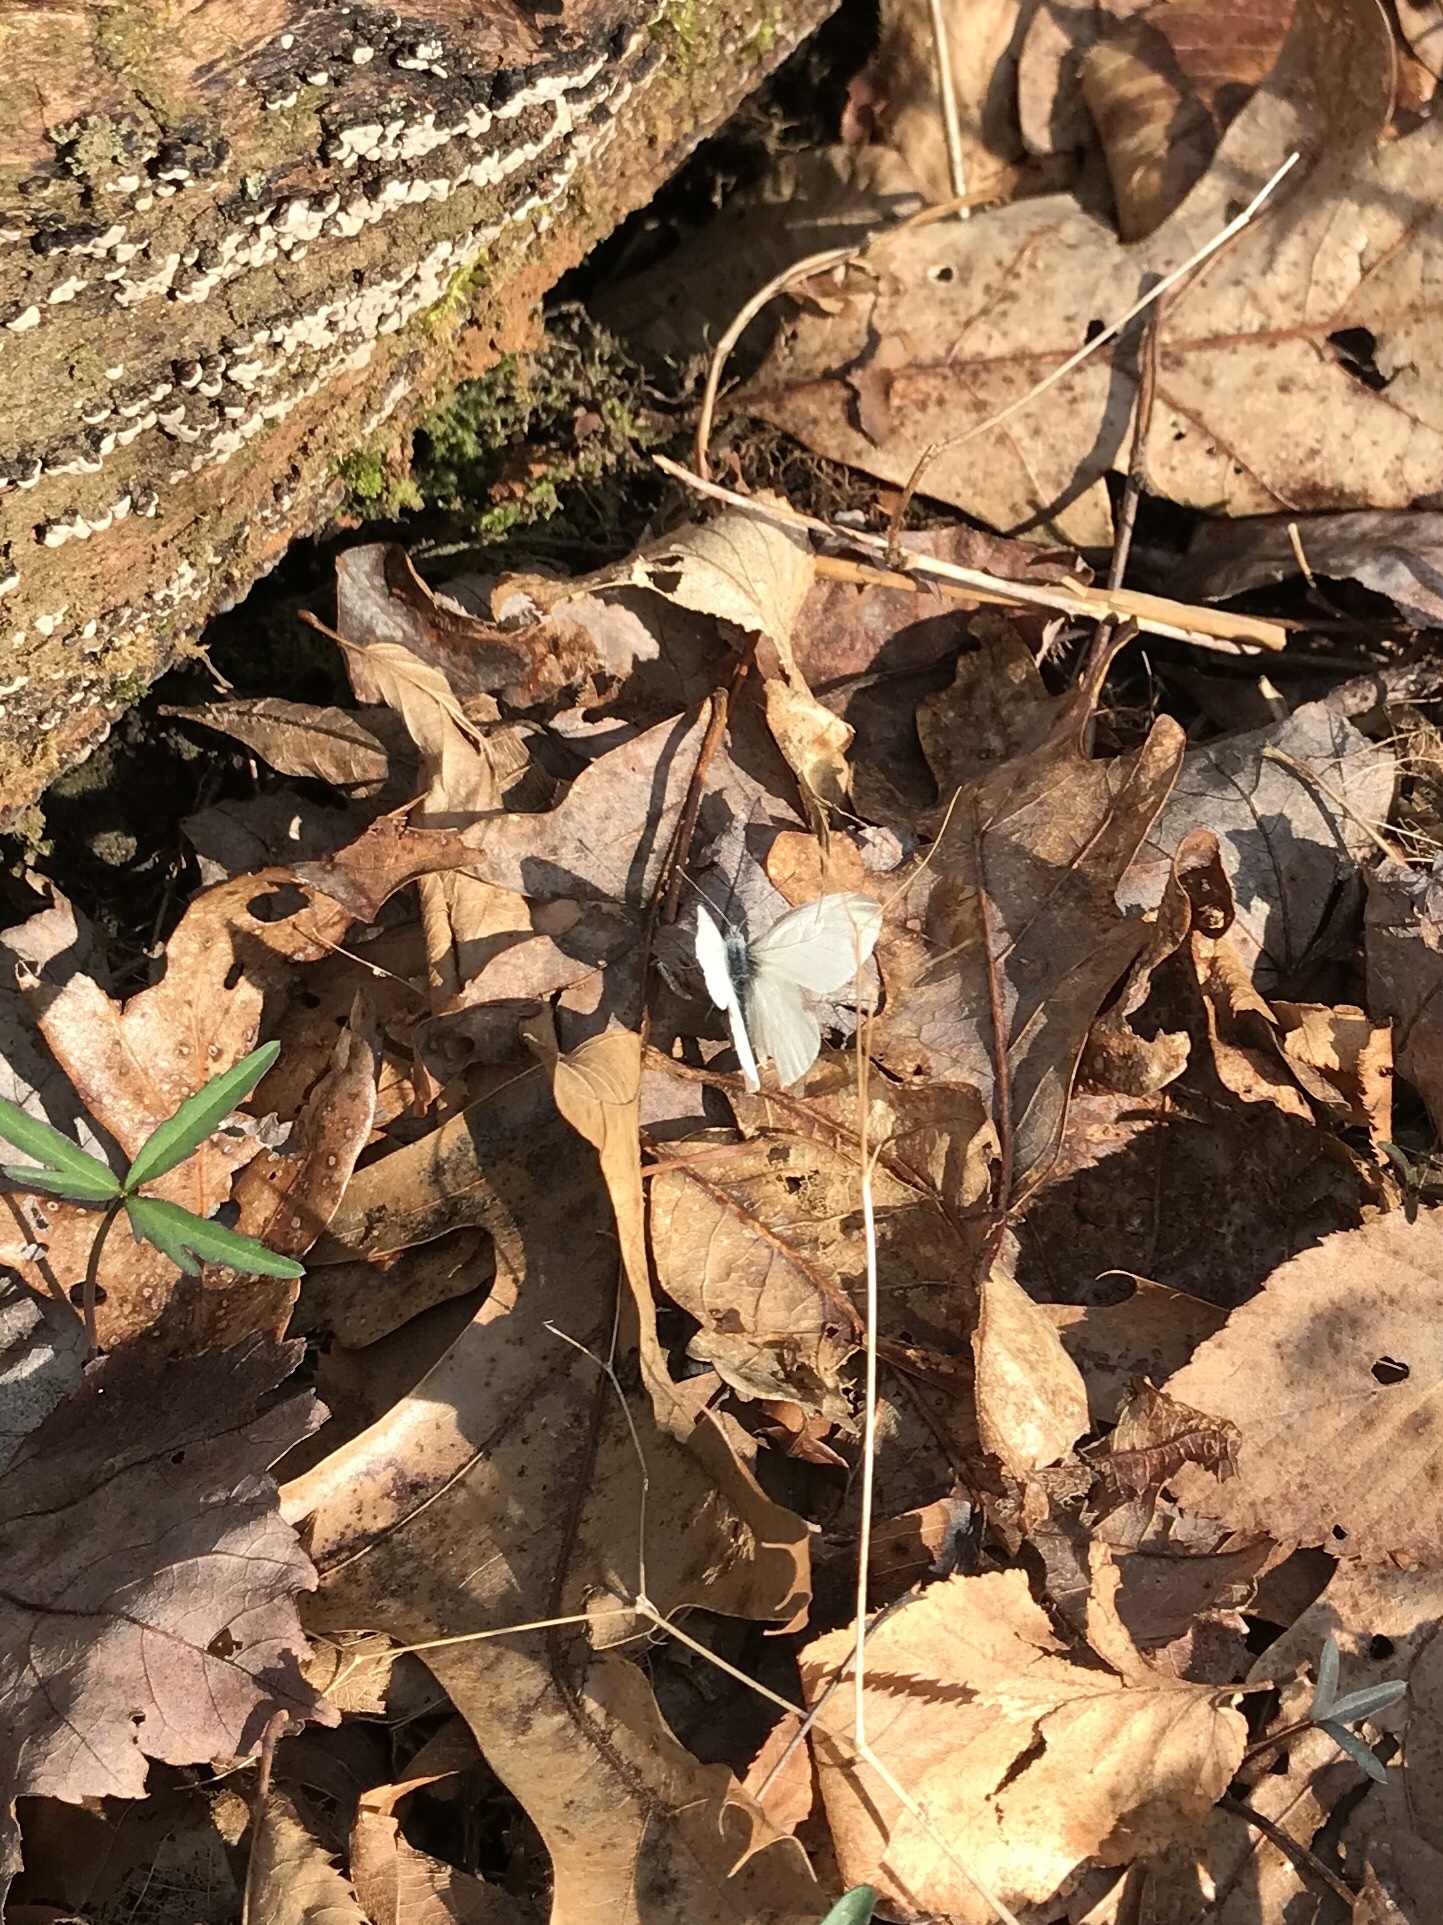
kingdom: Animalia
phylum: Arthropoda
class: Insecta
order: Lepidoptera
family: Pieridae
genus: Pieris
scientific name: Pieris virginiensis
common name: West virginia white
